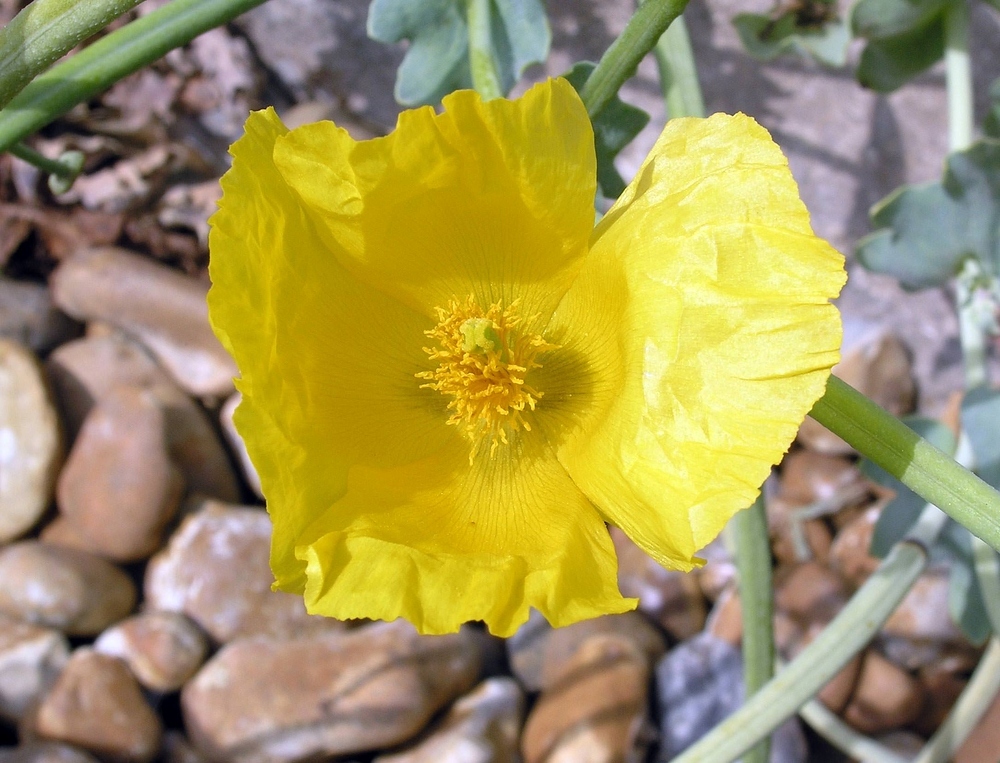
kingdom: Plantae
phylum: Tracheophyta
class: Magnoliopsida
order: Ranunculales
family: Papaveraceae
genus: Glaucium
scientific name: Glaucium flavum
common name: Yellow horned-poppy
